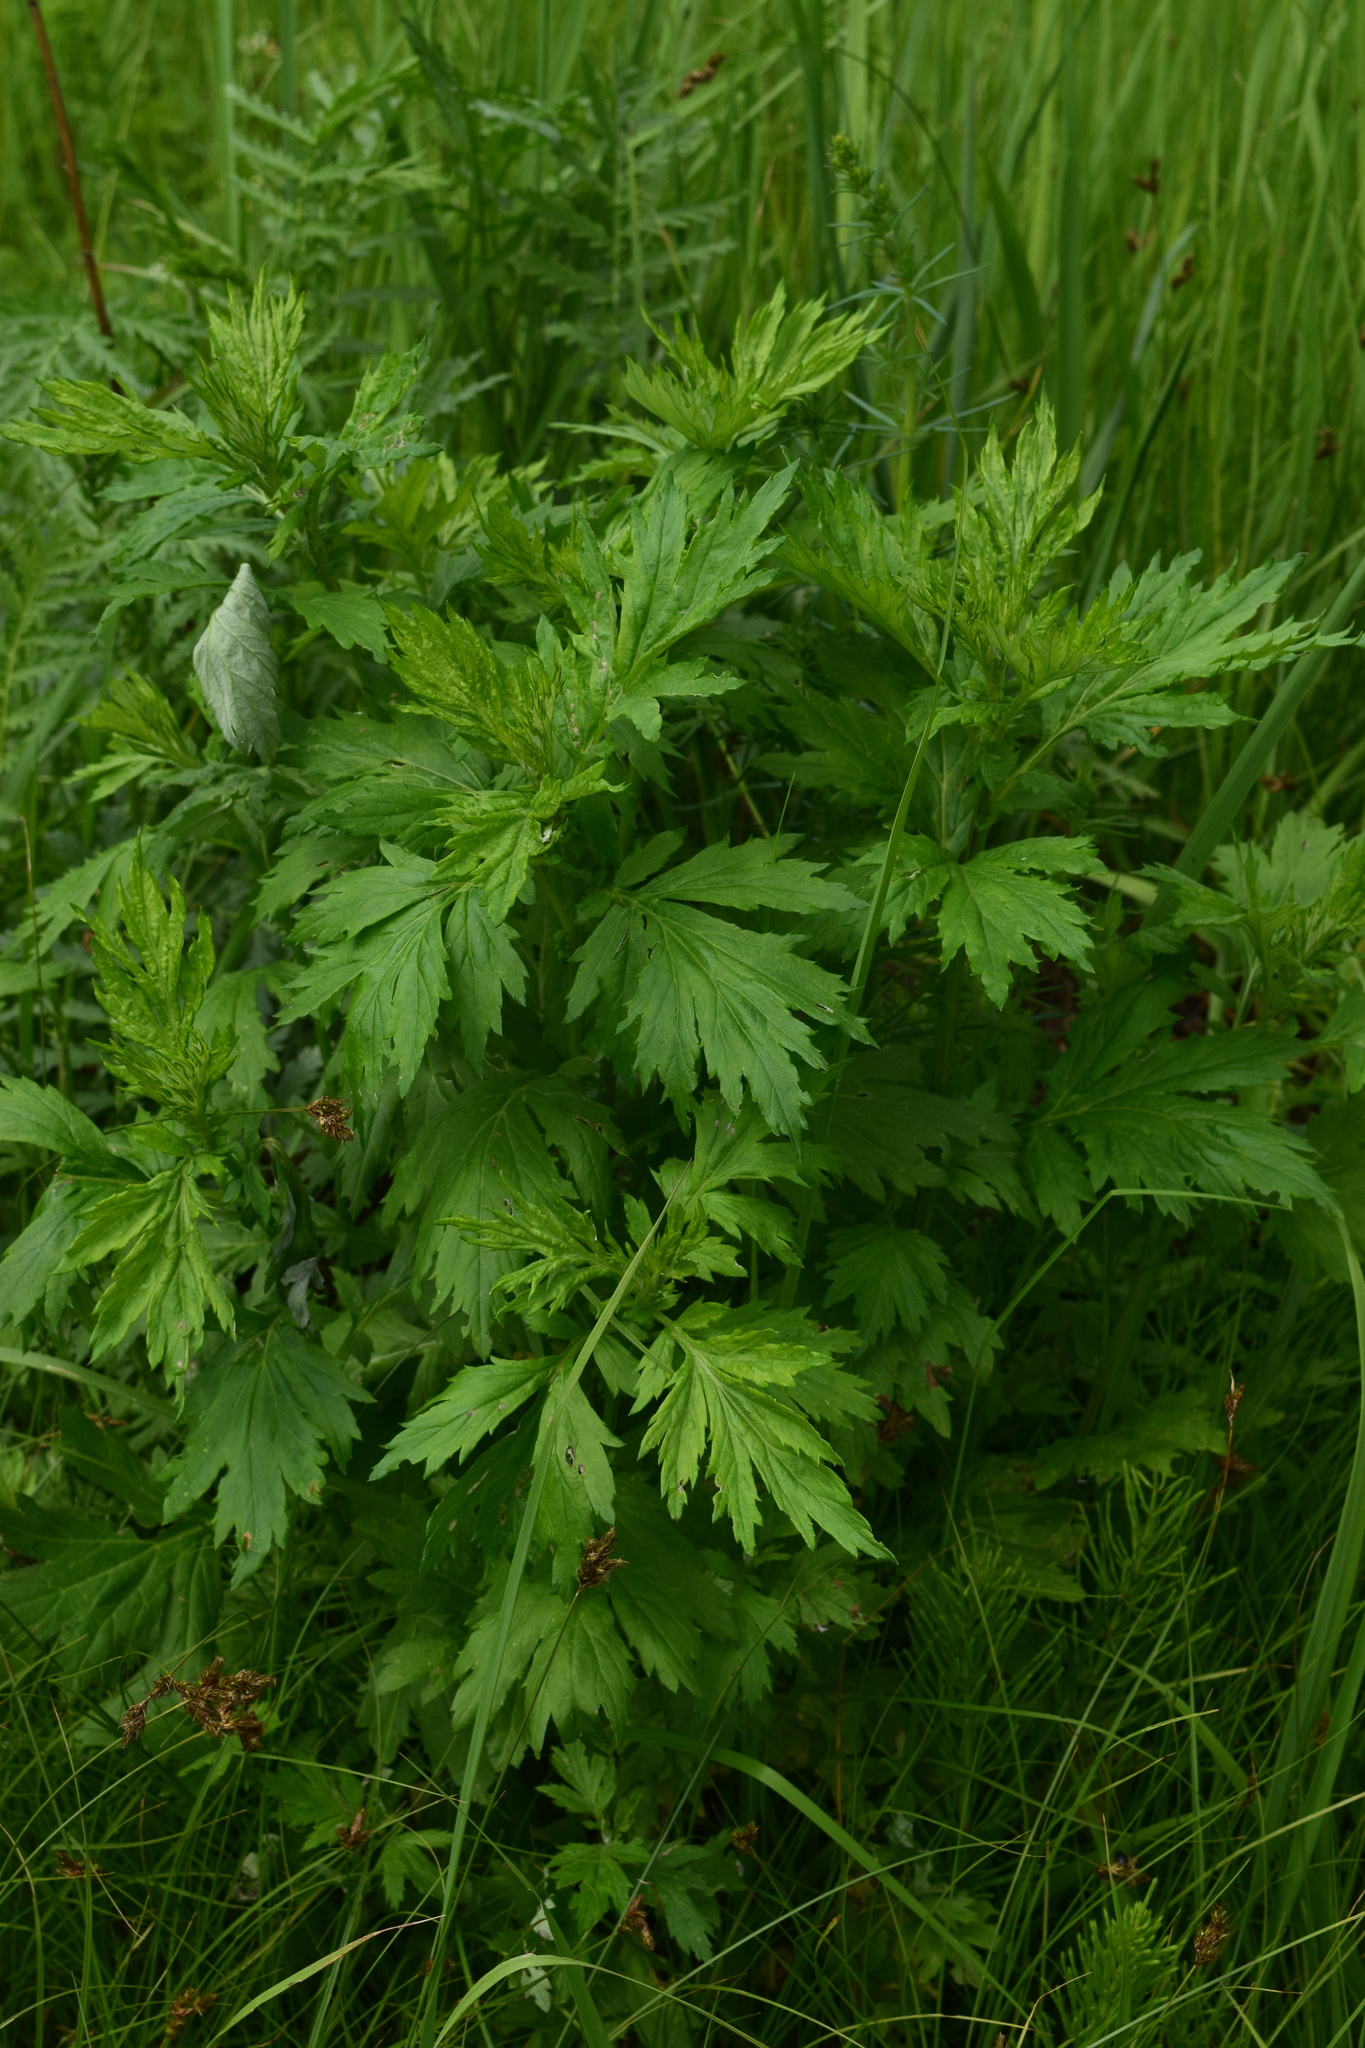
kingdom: Plantae
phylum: Tracheophyta
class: Magnoliopsida
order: Asterales
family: Asteraceae
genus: Artemisia
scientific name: Artemisia vulgaris
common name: Mugwort
